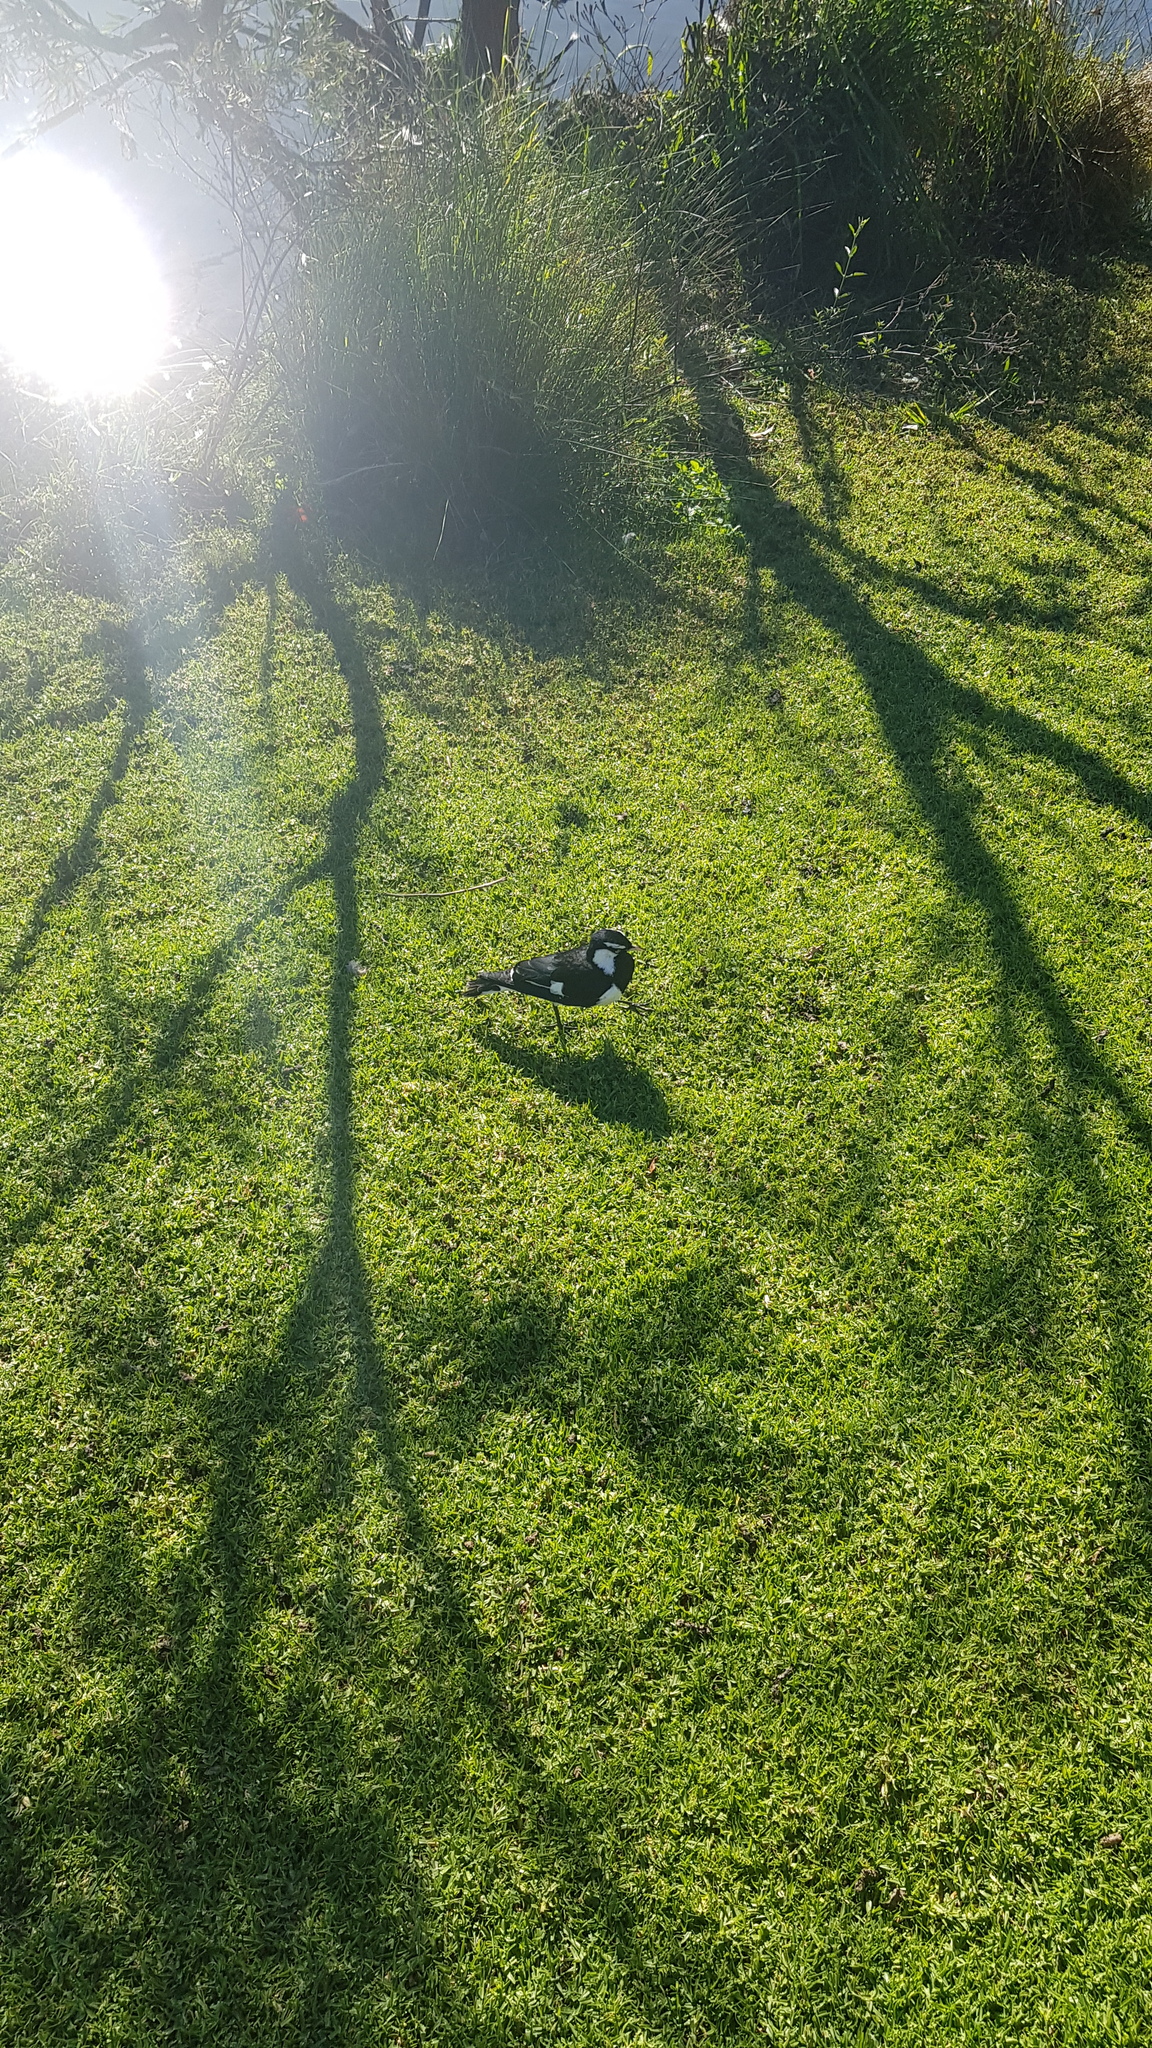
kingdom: Animalia
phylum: Chordata
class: Aves
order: Passeriformes
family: Monarchidae
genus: Grallina
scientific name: Grallina cyanoleuca
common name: Magpie-lark
